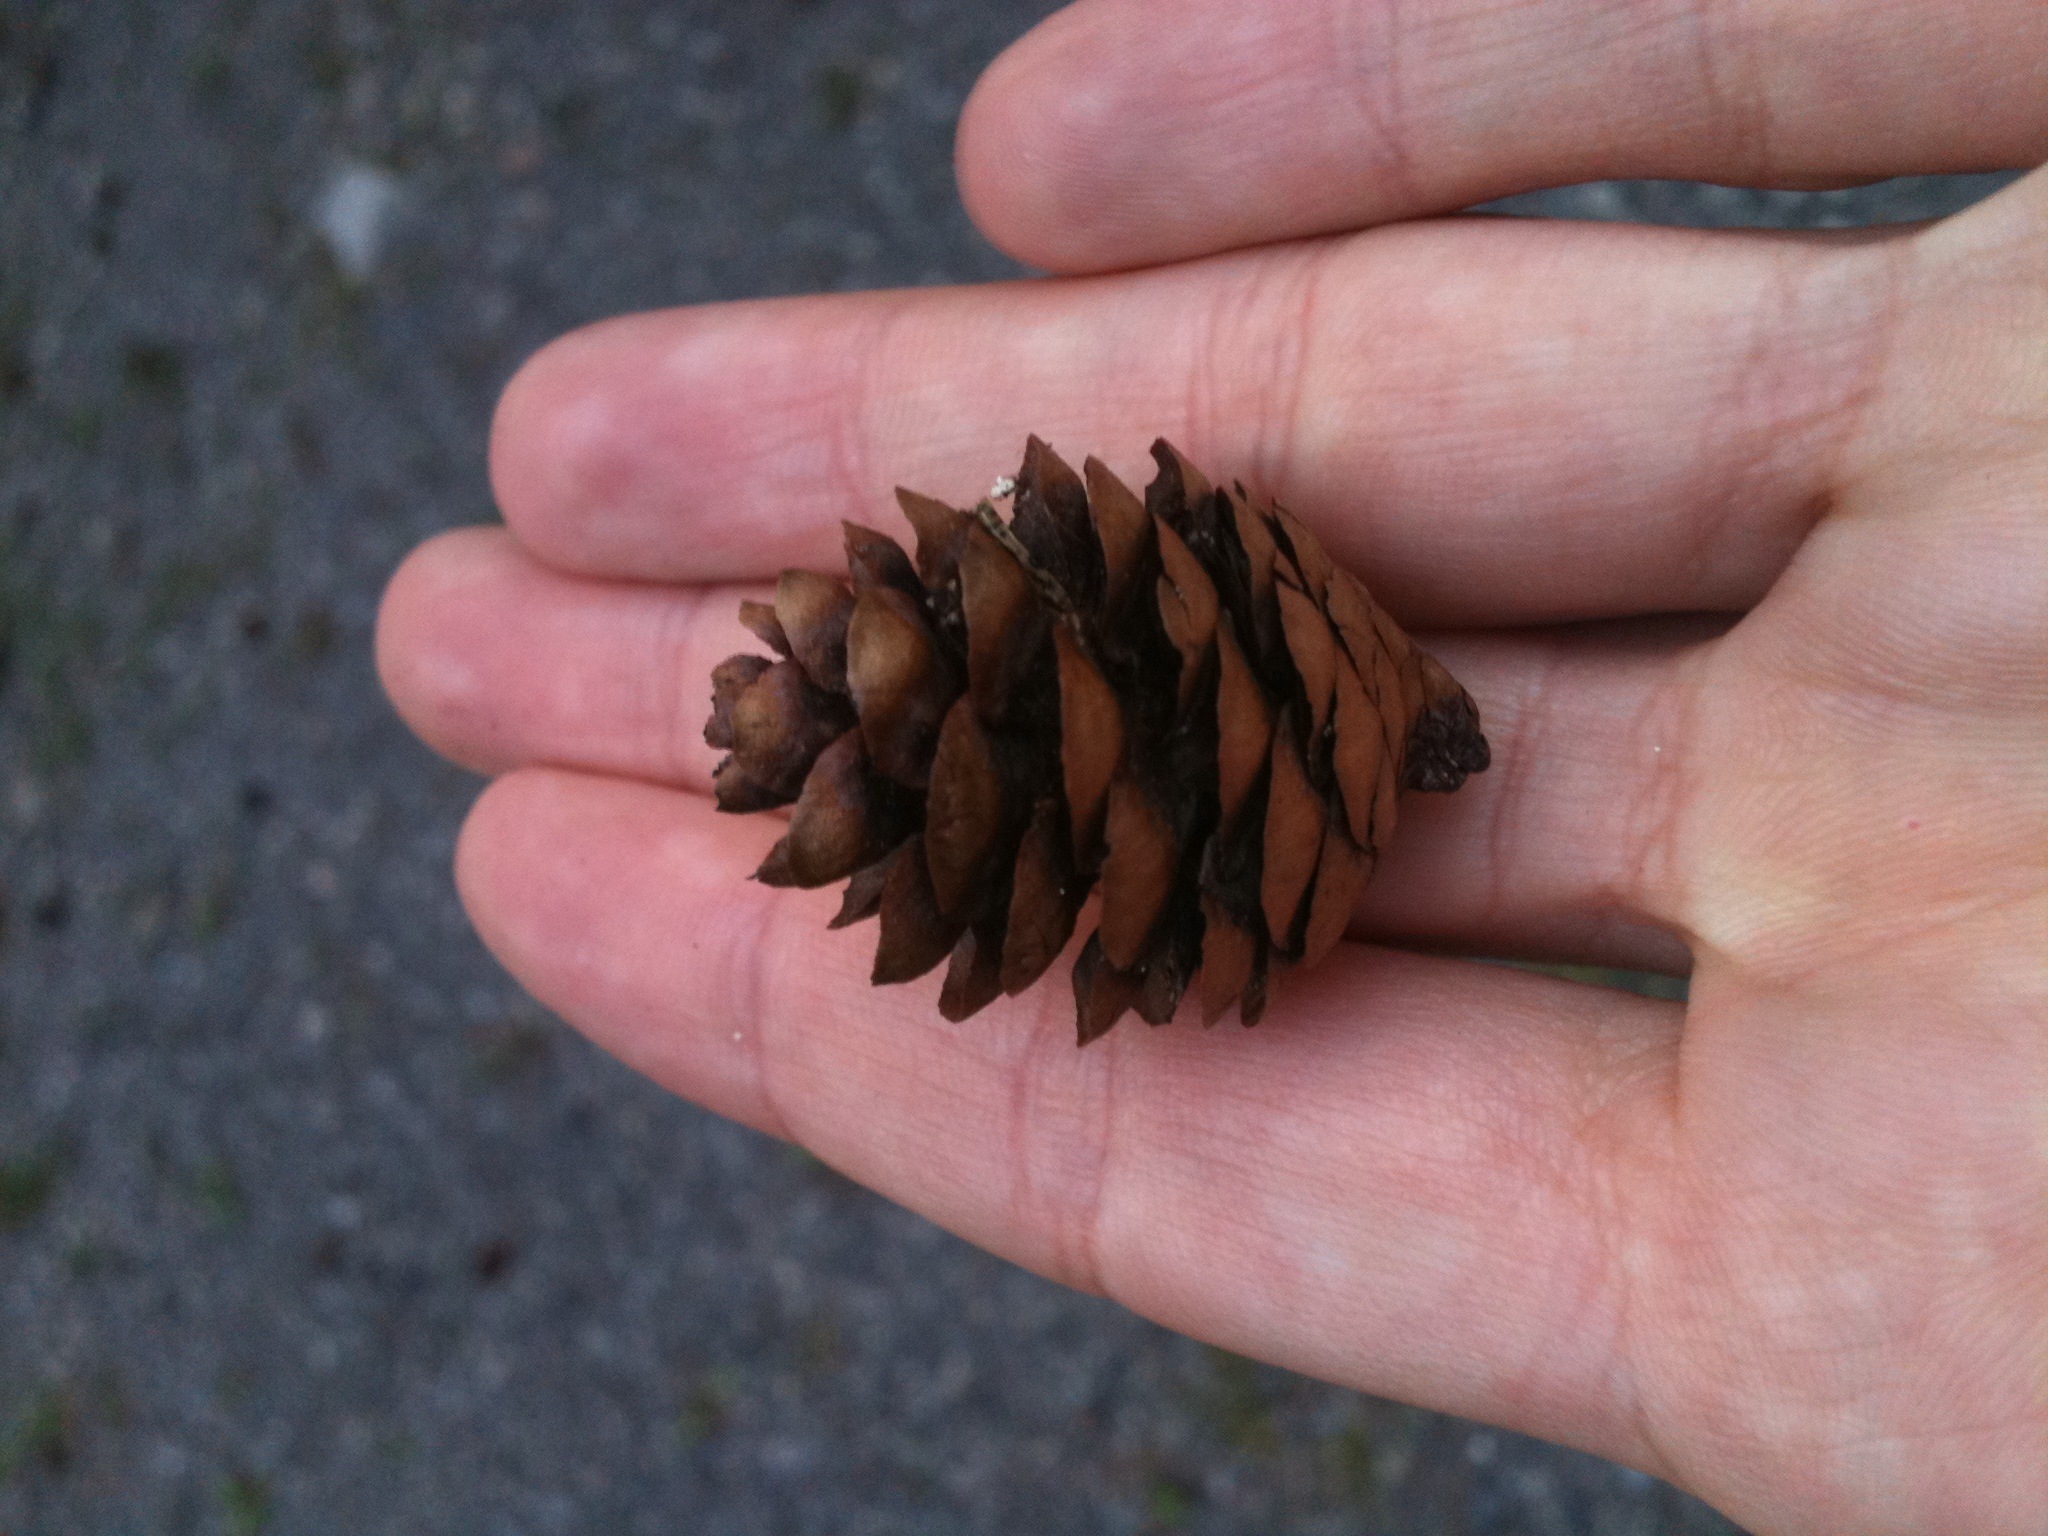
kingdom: Plantae
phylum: Tracheophyta
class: Pinopsida
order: Pinales
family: Pinaceae
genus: Picea
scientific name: Picea rubens
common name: Red spruce
